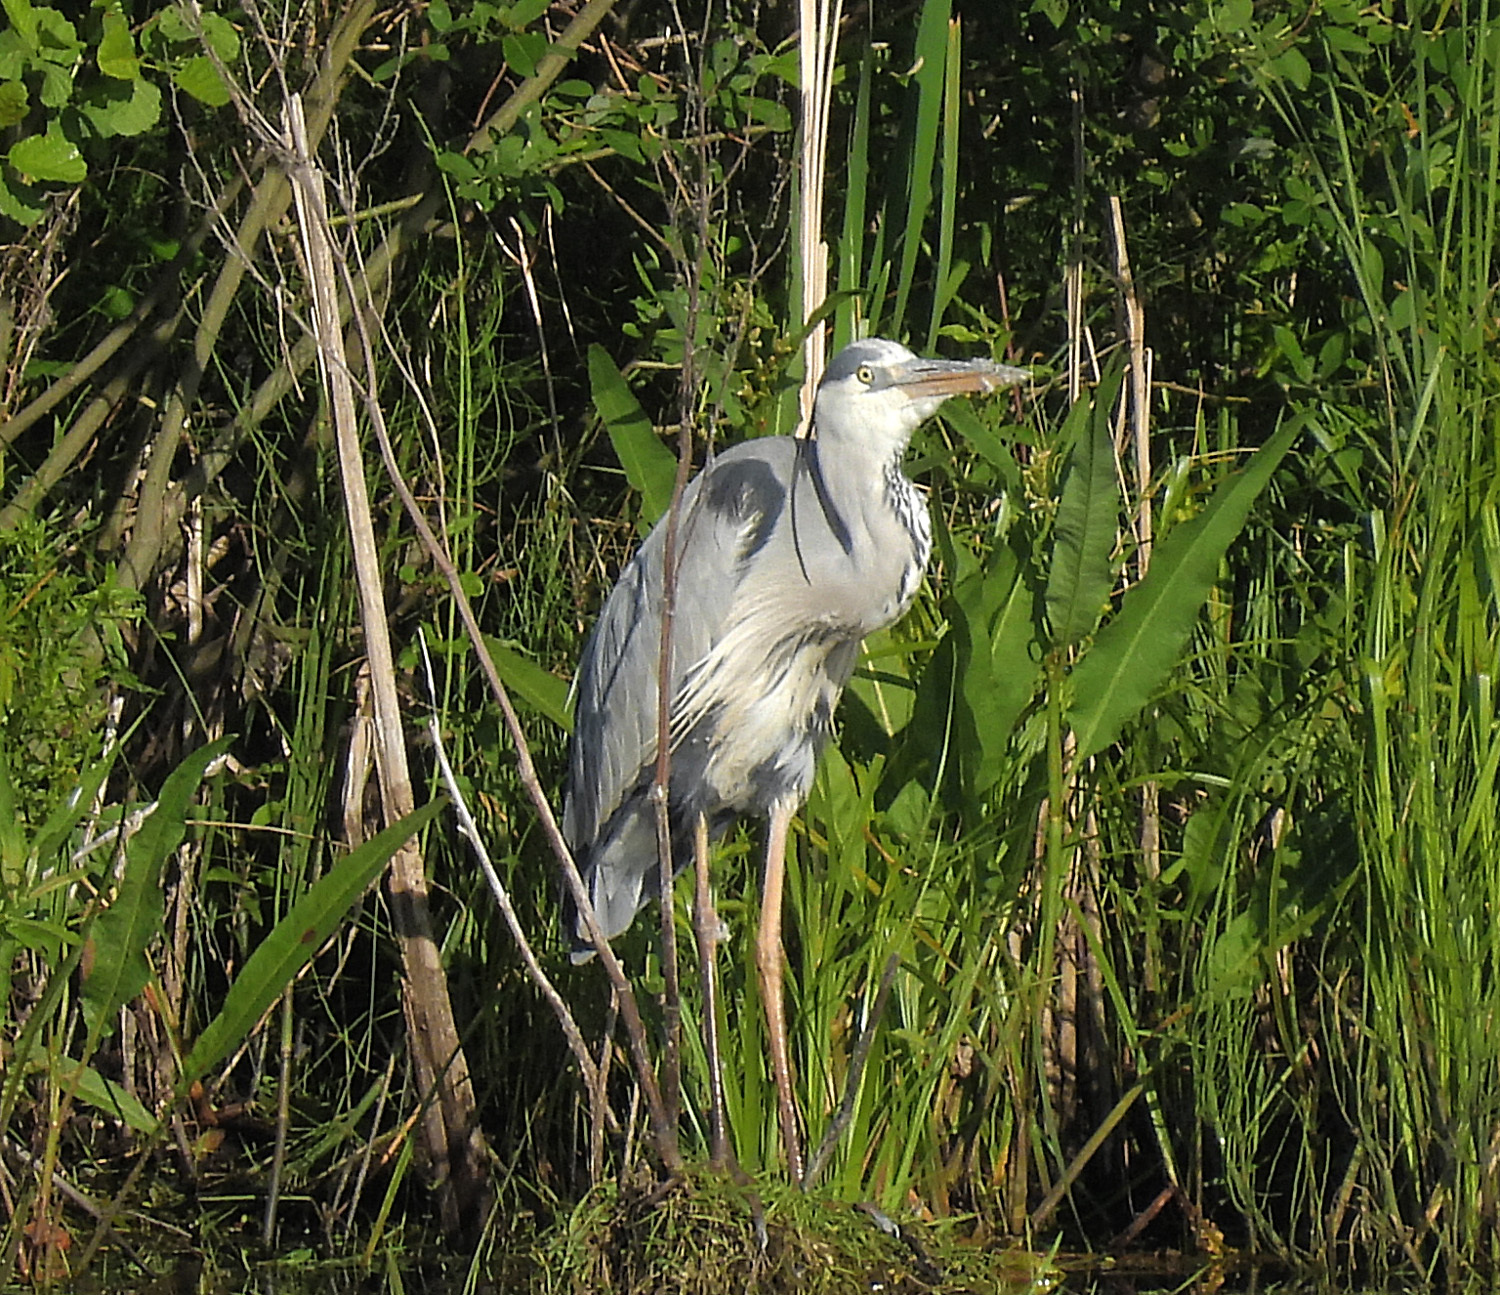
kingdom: Animalia
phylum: Chordata
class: Aves
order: Pelecaniformes
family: Ardeidae
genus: Ardea
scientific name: Ardea cinerea
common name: Grey heron
